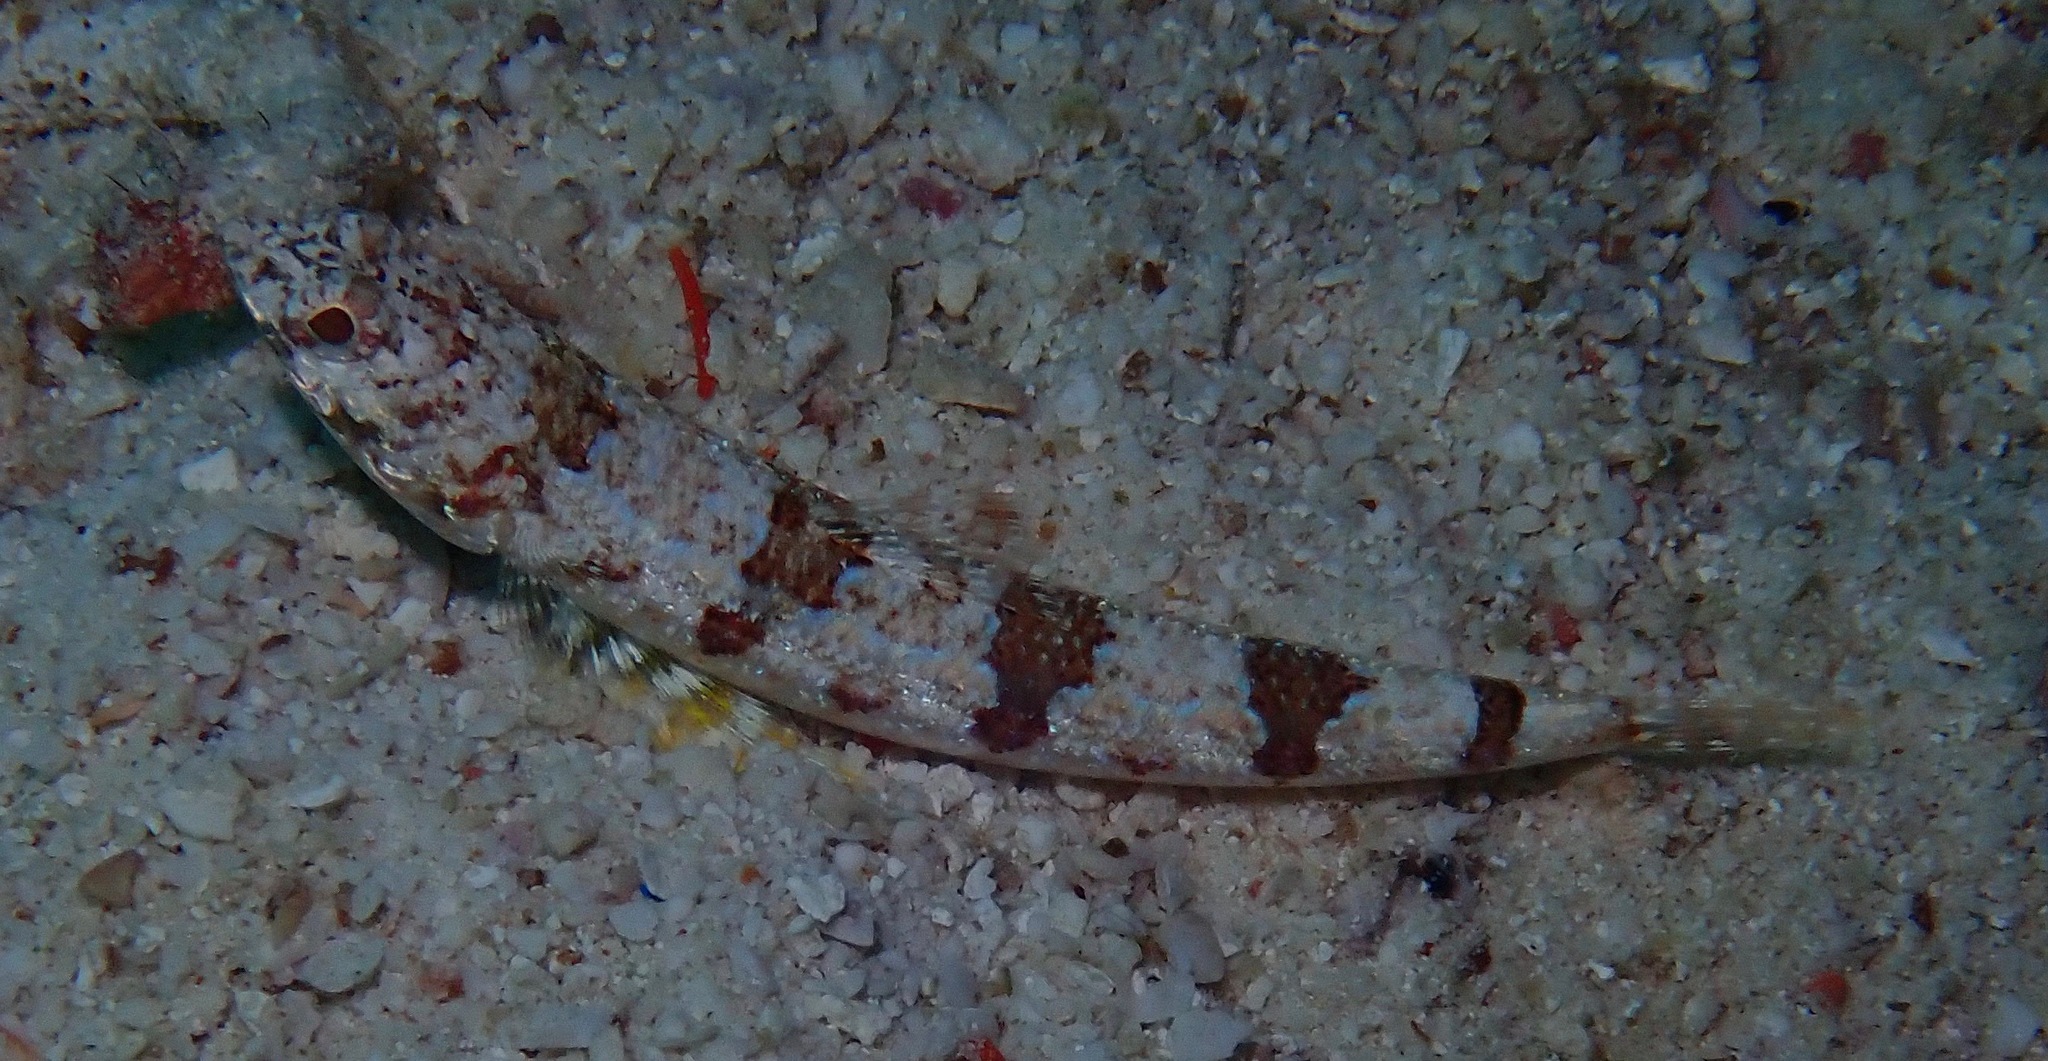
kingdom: Animalia
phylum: Chordata
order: Aulopiformes
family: Synodontidae
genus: Synodus
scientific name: Synodus dermatogenys
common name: Banded lizardfish
